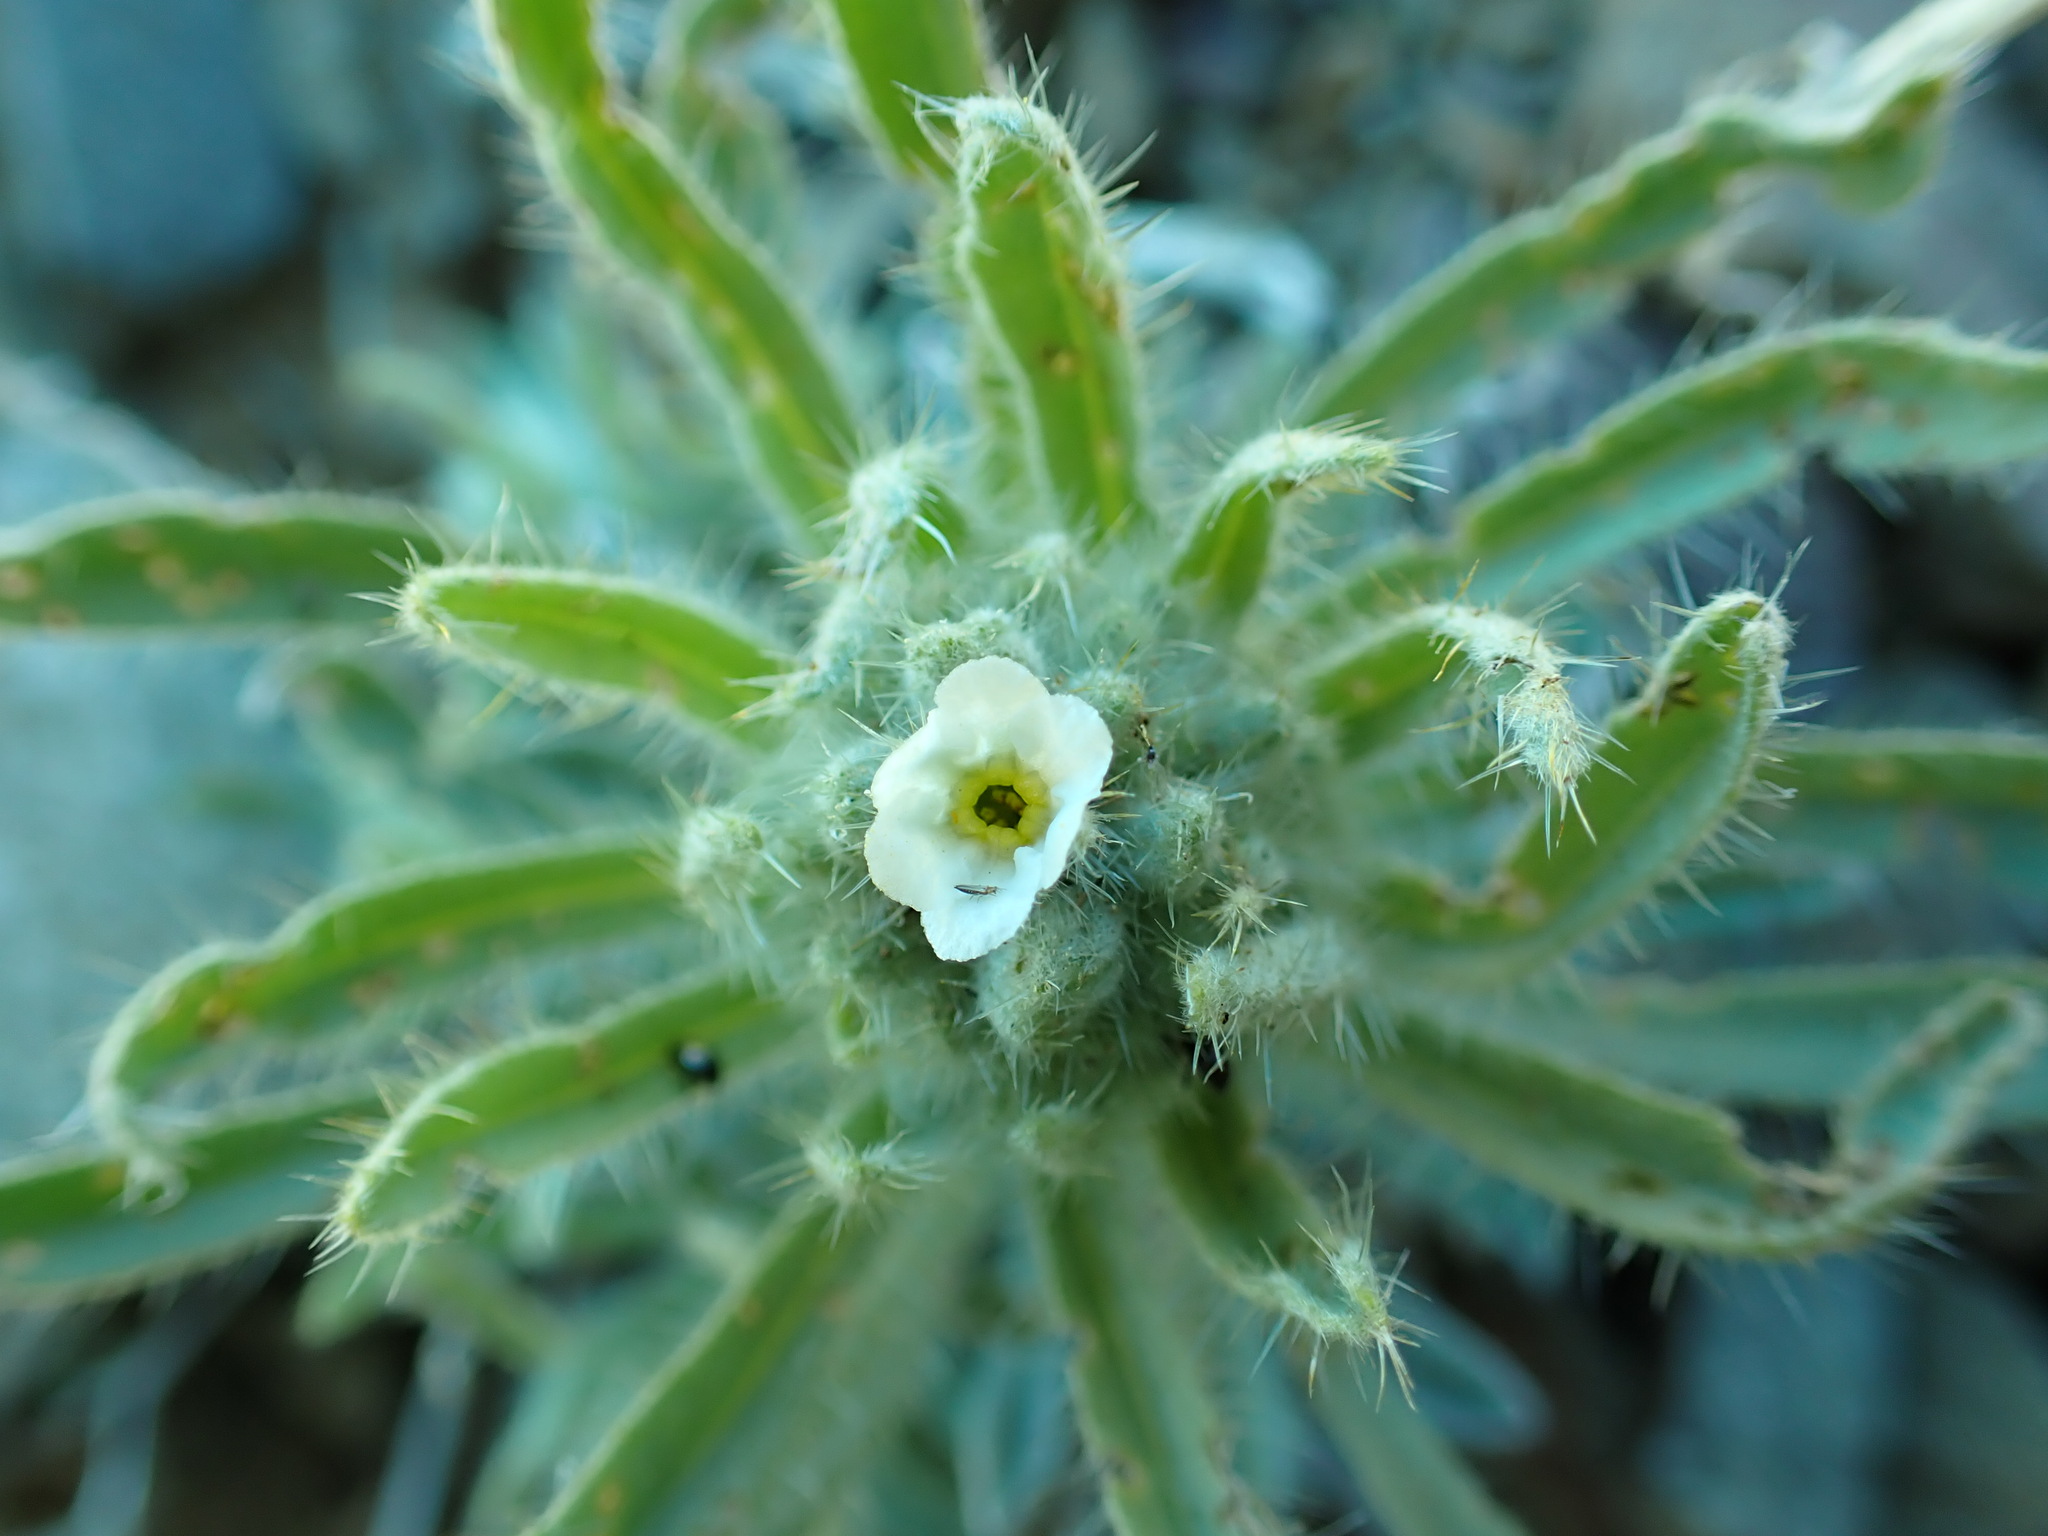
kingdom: Plantae
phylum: Tracheophyta
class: Magnoliopsida
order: Boraginales
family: Boraginaceae
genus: Oreocarya
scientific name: Oreocarya thompsonii
